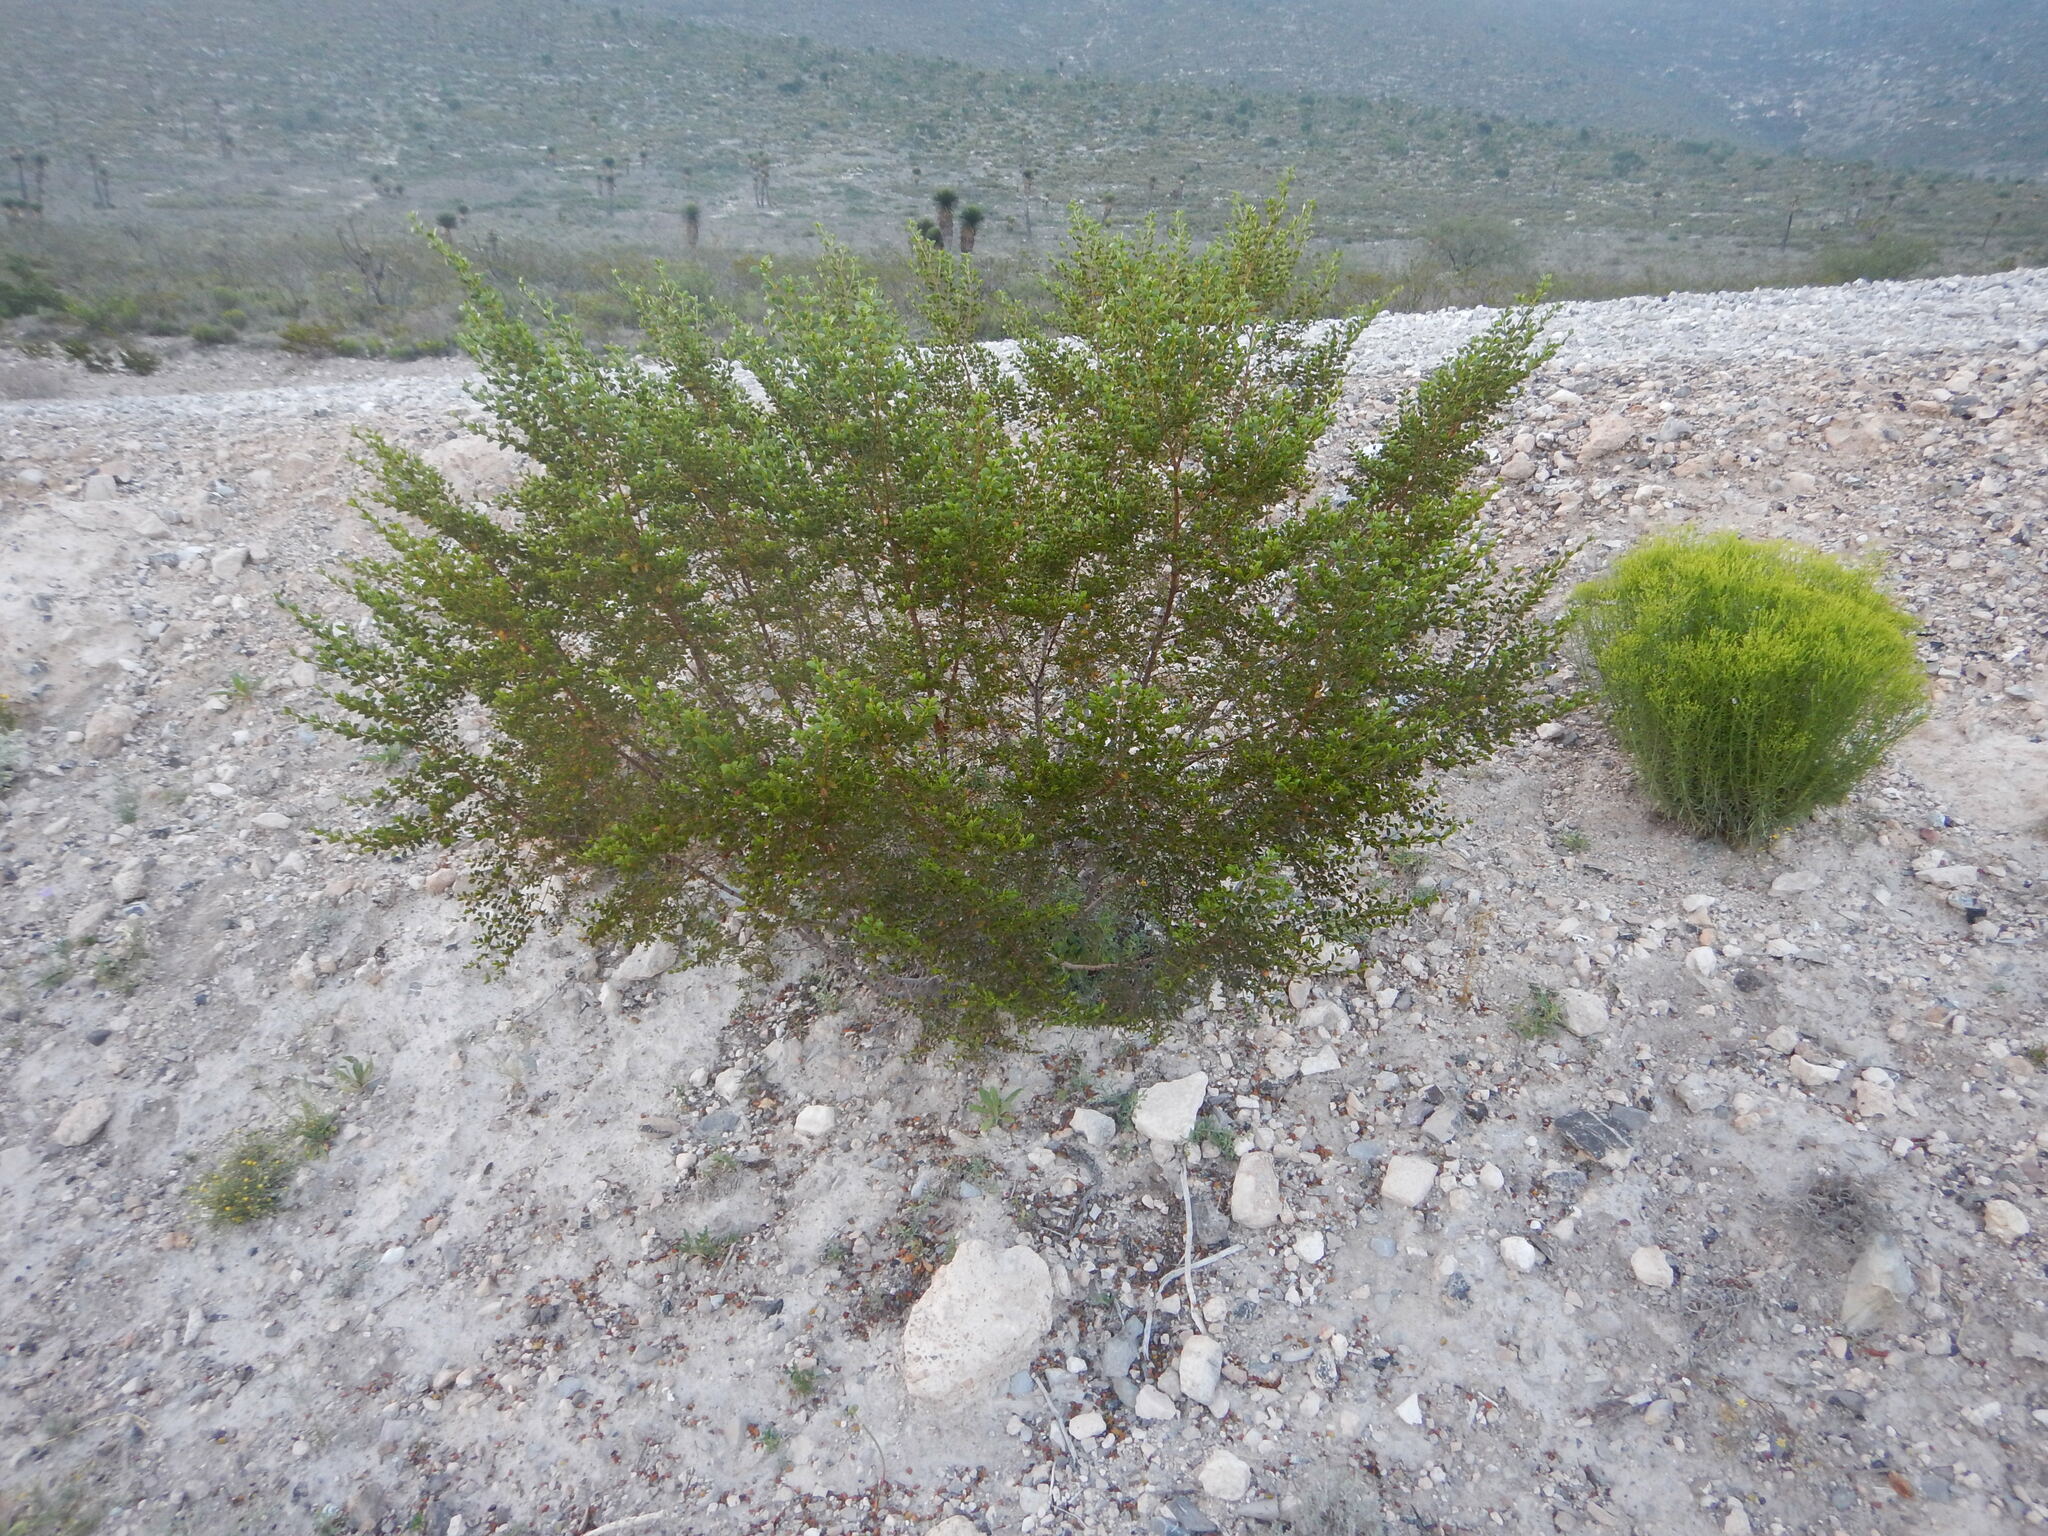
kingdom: Plantae
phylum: Tracheophyta
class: Magnoliopsida
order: Zygophyllales
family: Zygophyllaceae
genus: Larrea
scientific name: Larrea tridentata
